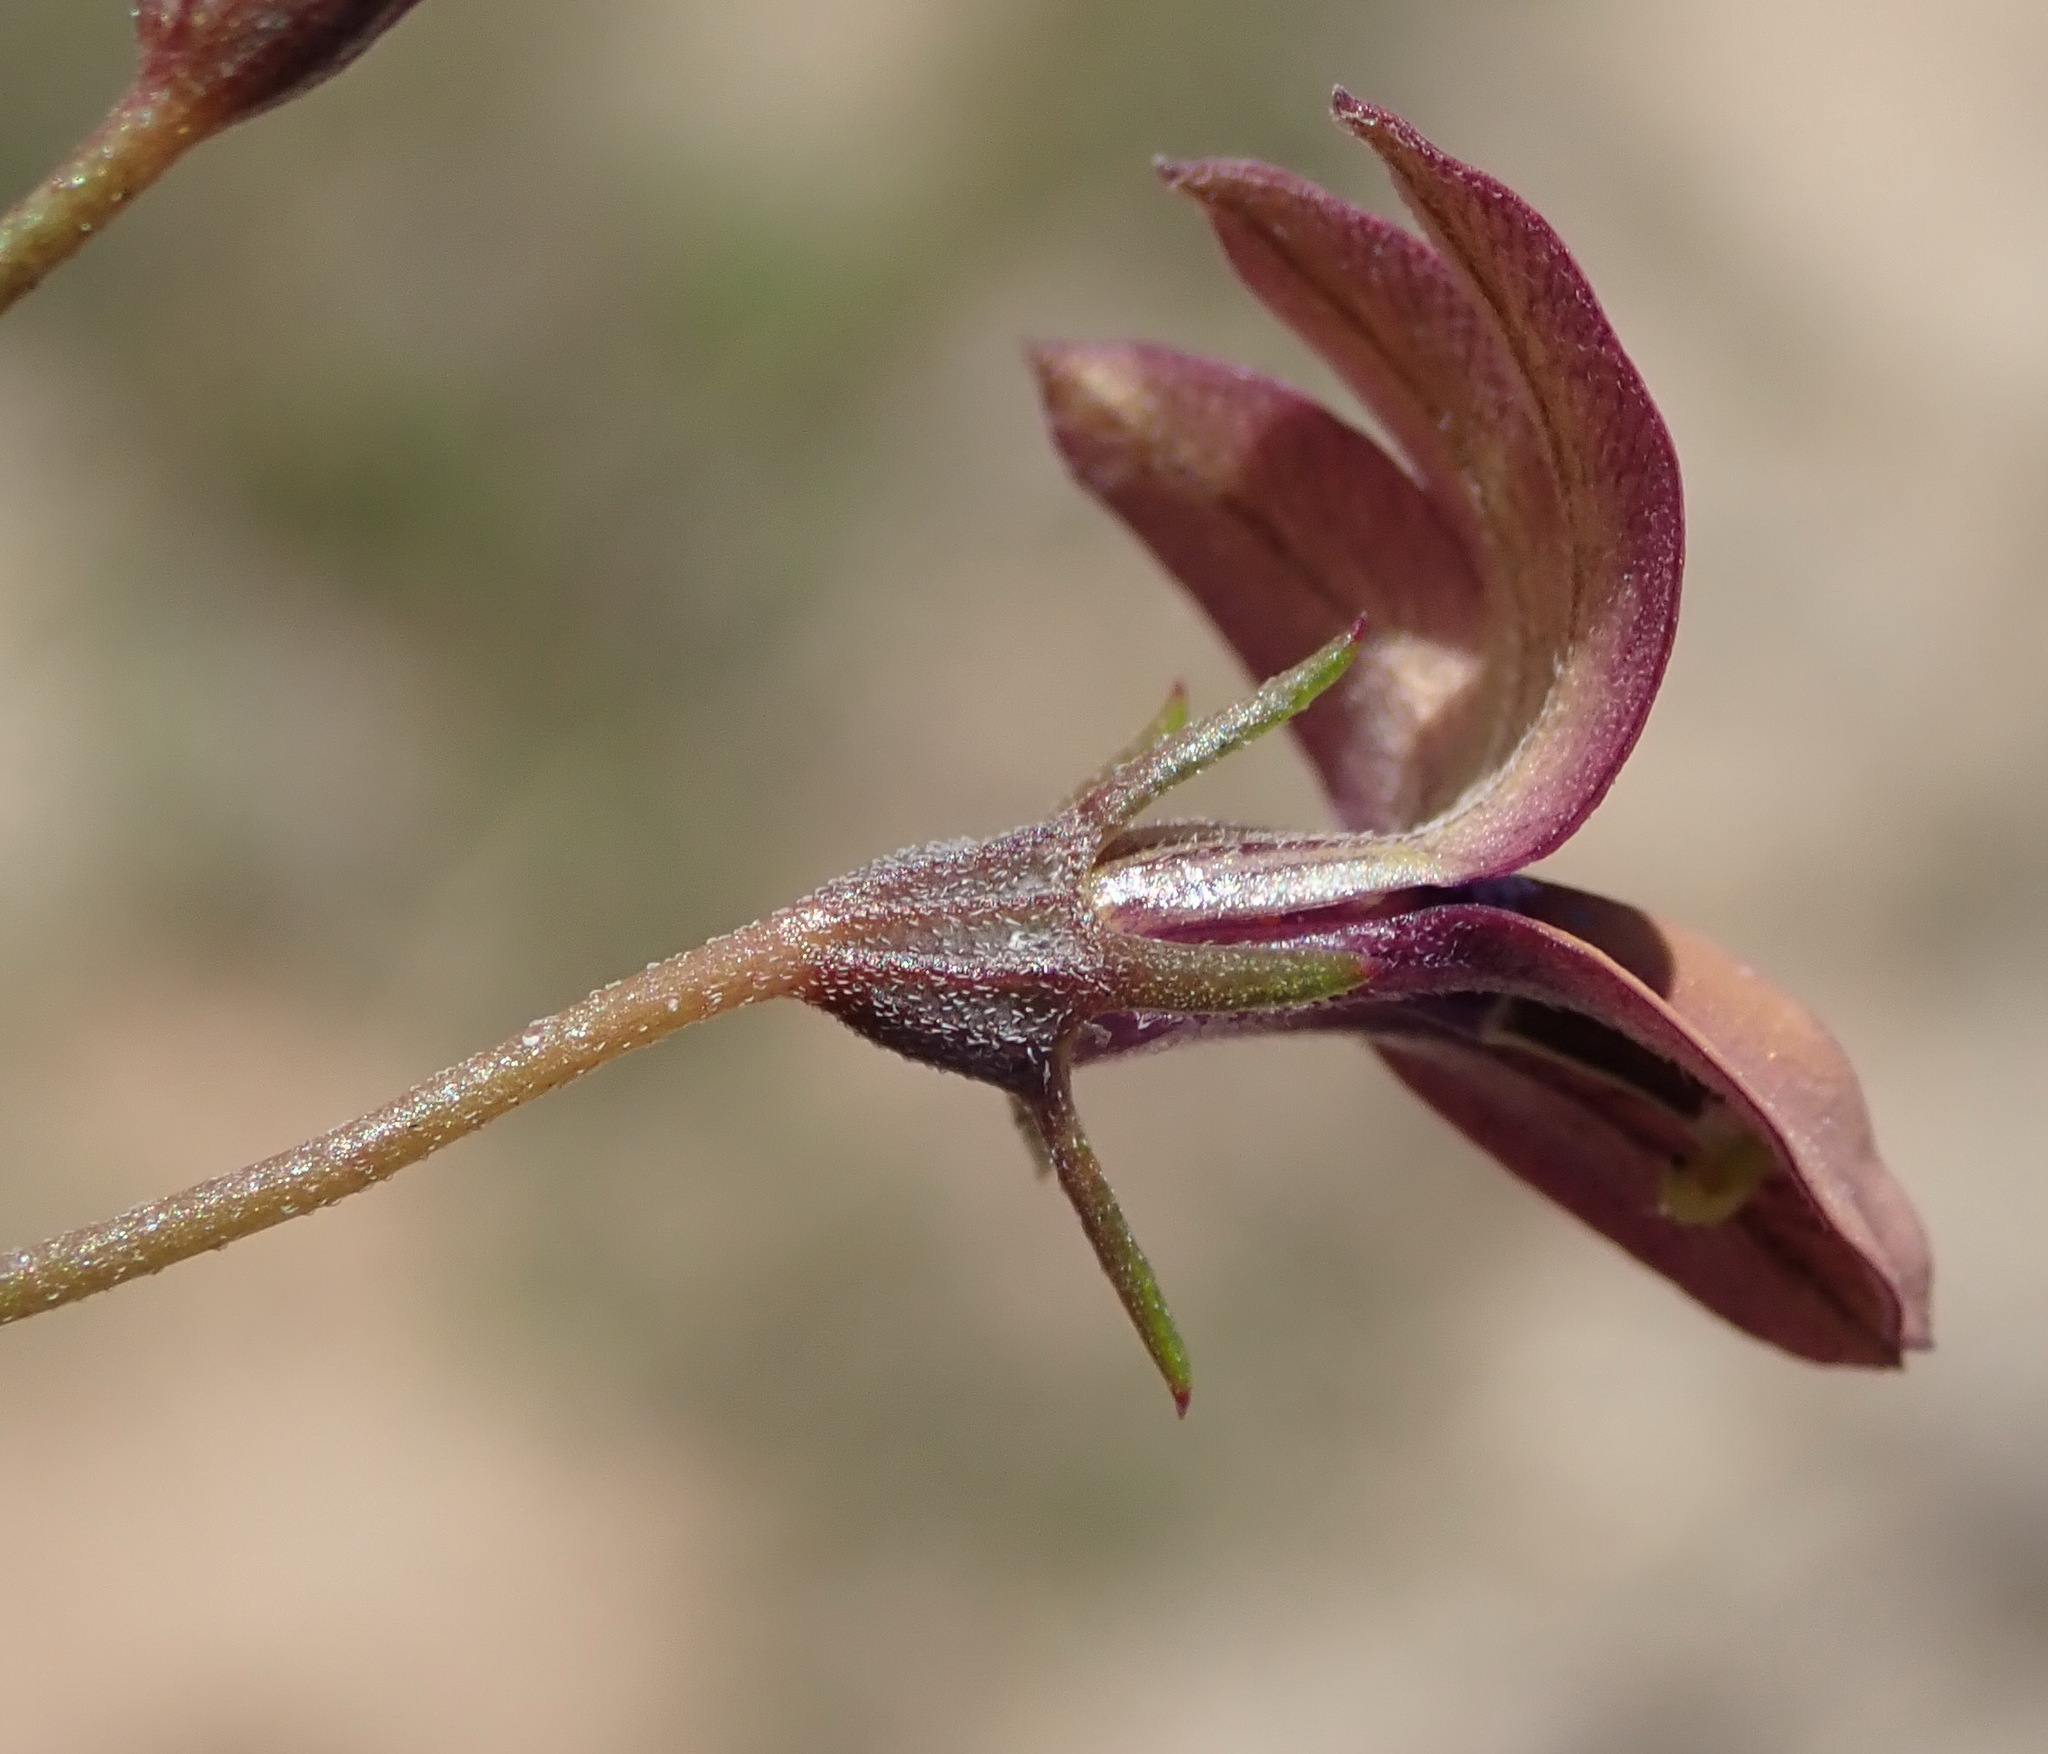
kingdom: Plantae
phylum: Tracheophyta
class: Magnoliopsida
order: Asterales
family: Campanulaceae
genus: Monopsis
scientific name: Monopsis unidentata
